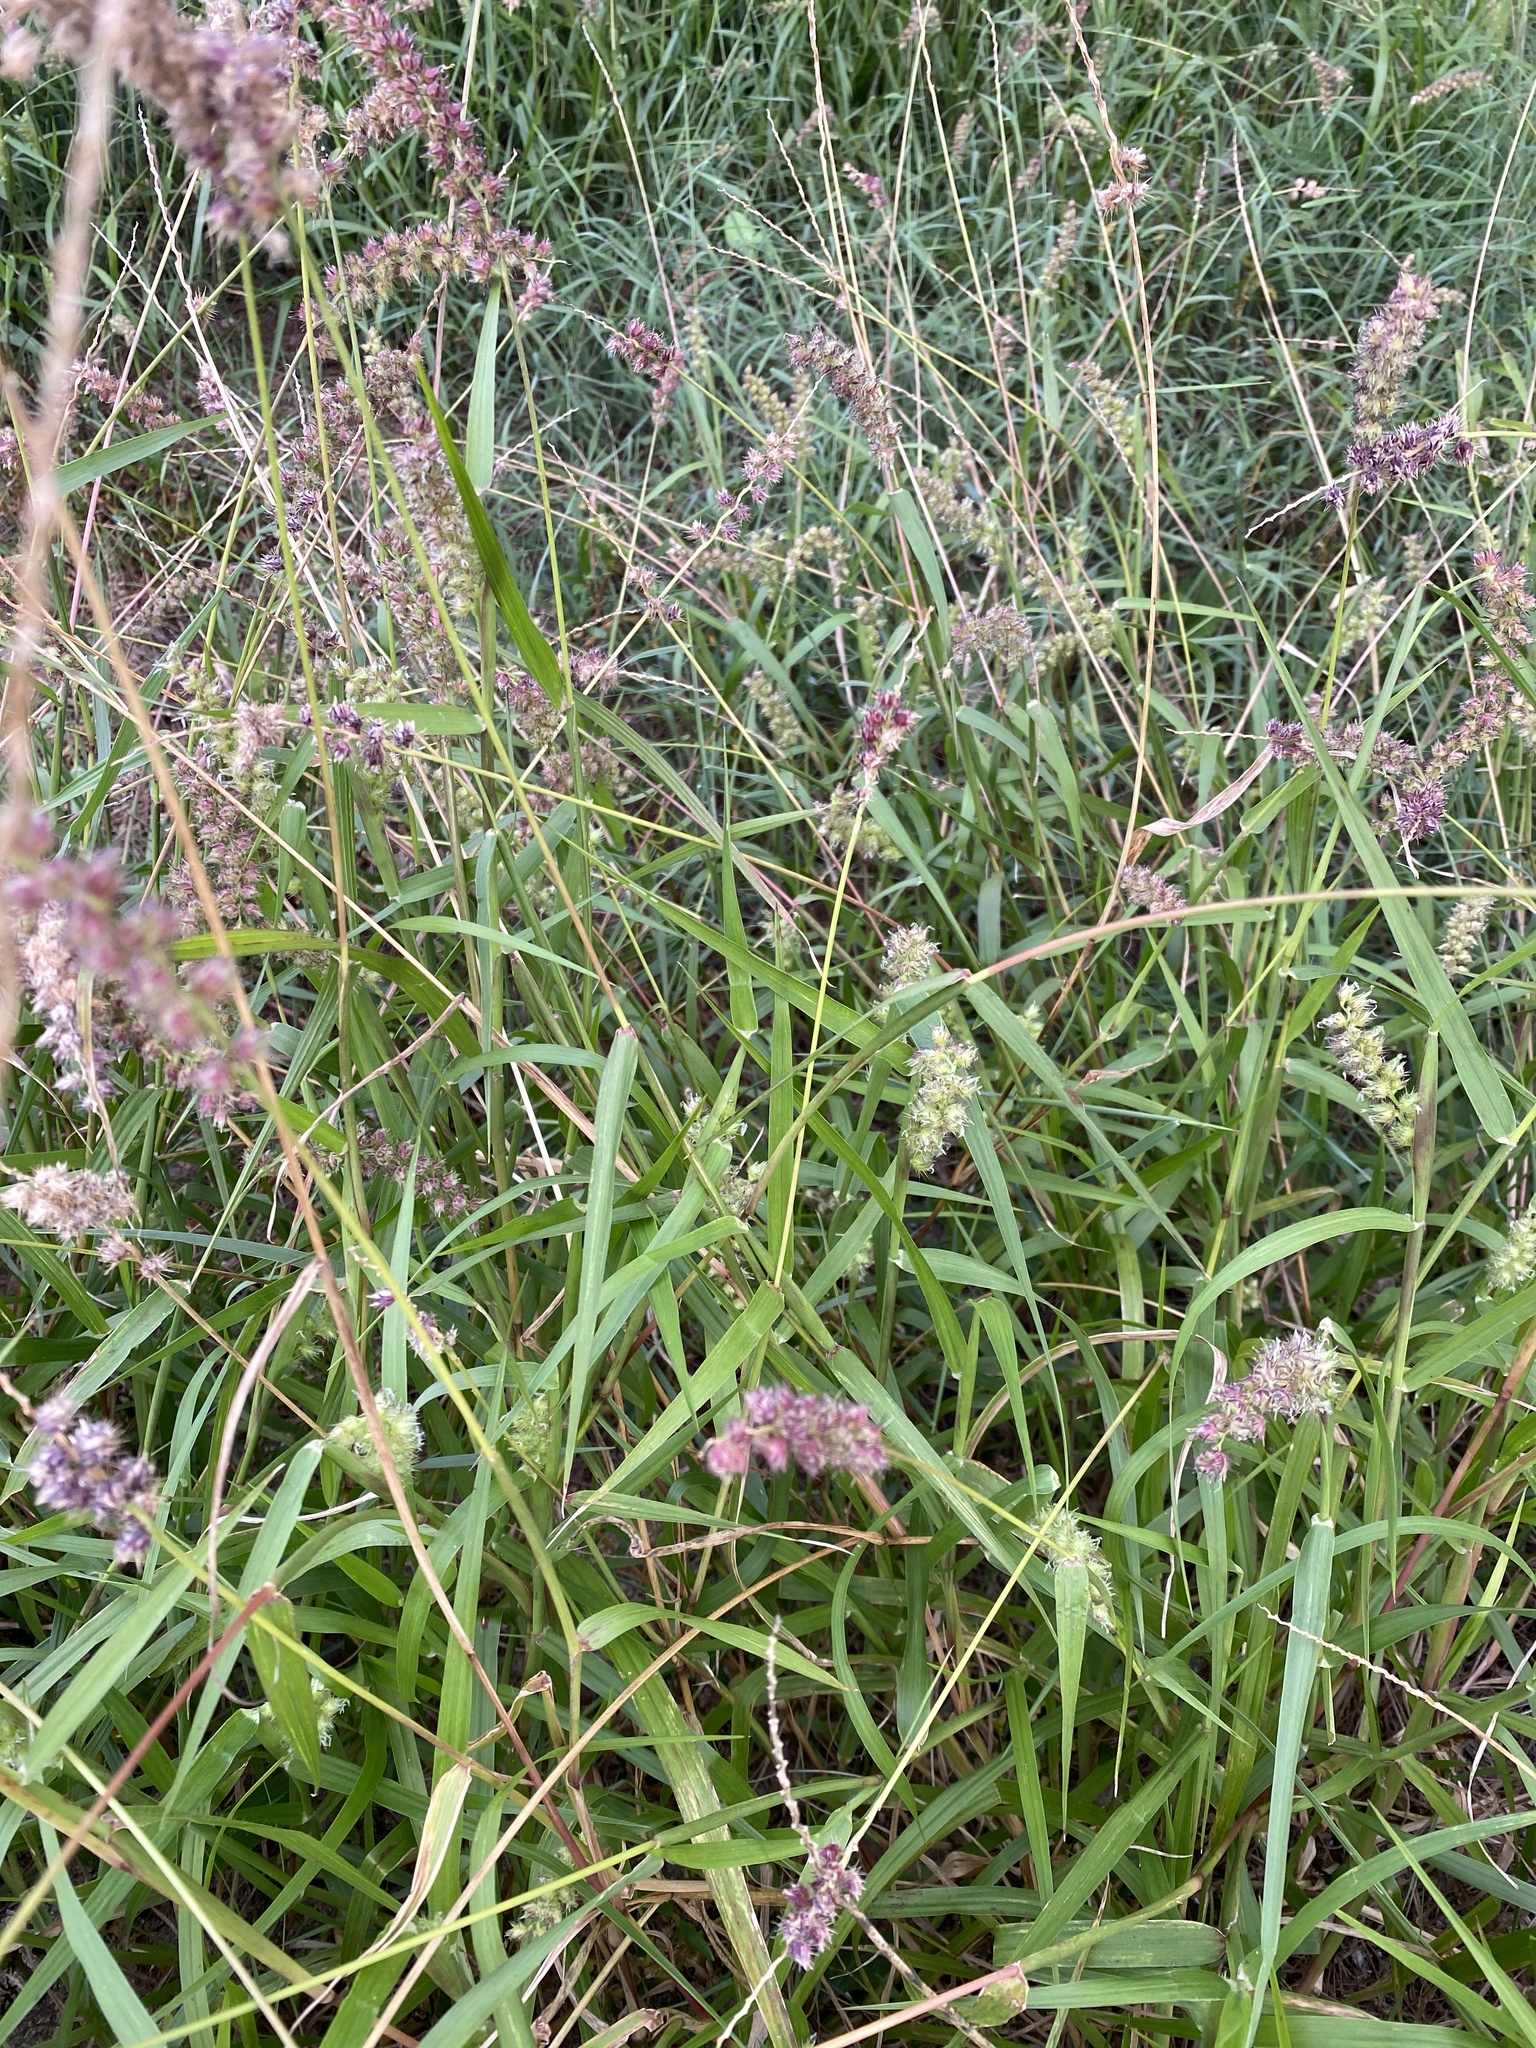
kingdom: Plantae
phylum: Tracheophyta
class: Liliopsida
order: Poales
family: Poaceae
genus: Cenchrus
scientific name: Cenchrus echinatus
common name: Southern sandbur
